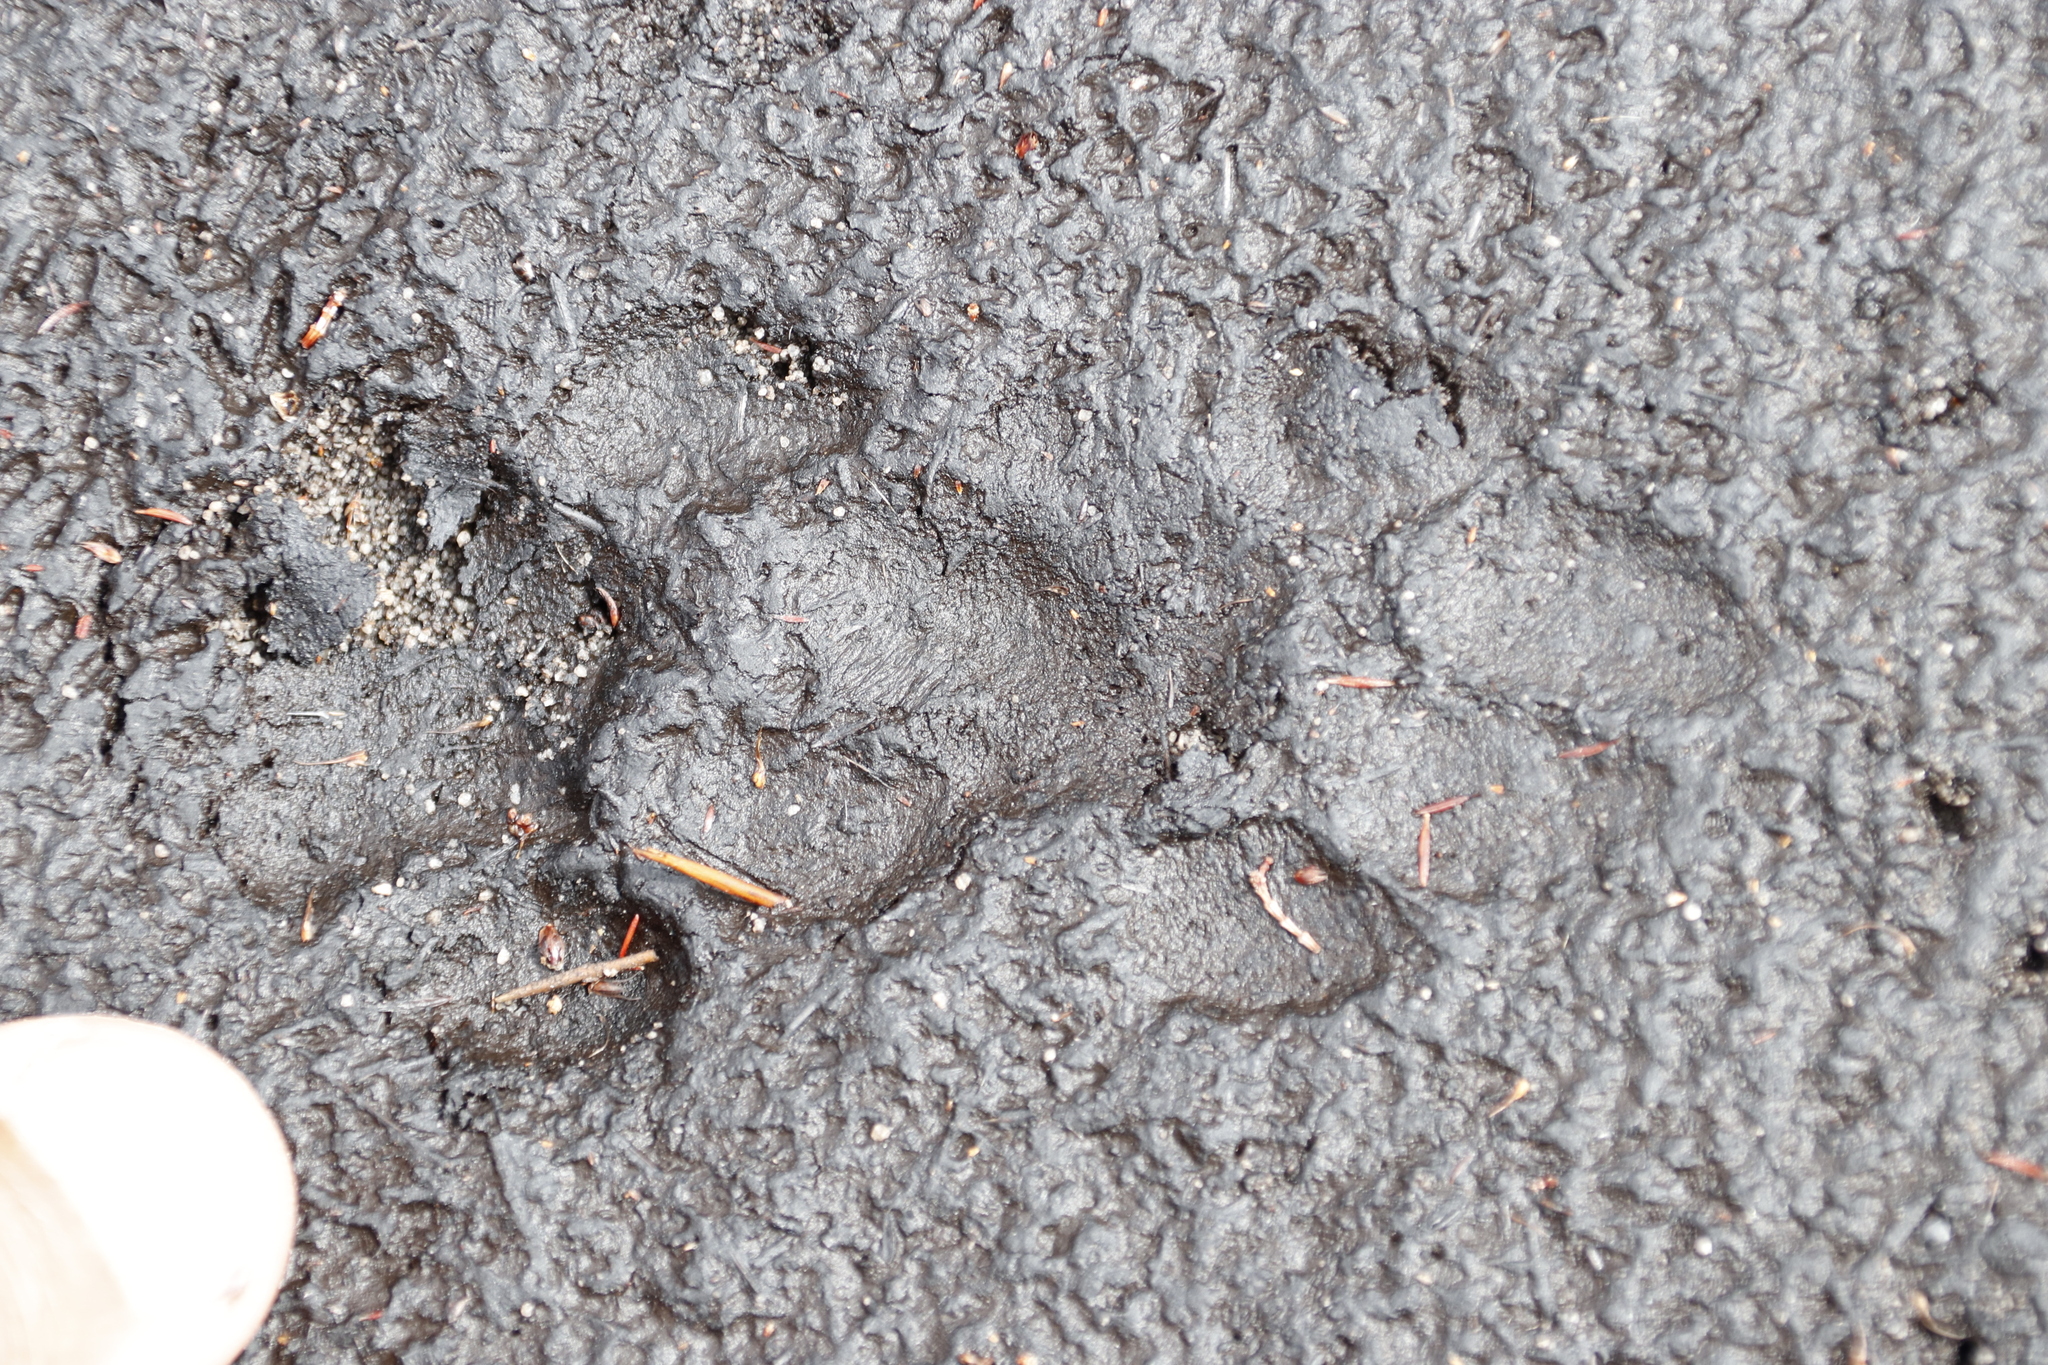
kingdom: Animalia
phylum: Chordata
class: Mammalia
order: Carnivora
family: Felidae
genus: Caracal
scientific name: Caracal caracal
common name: Caracal
